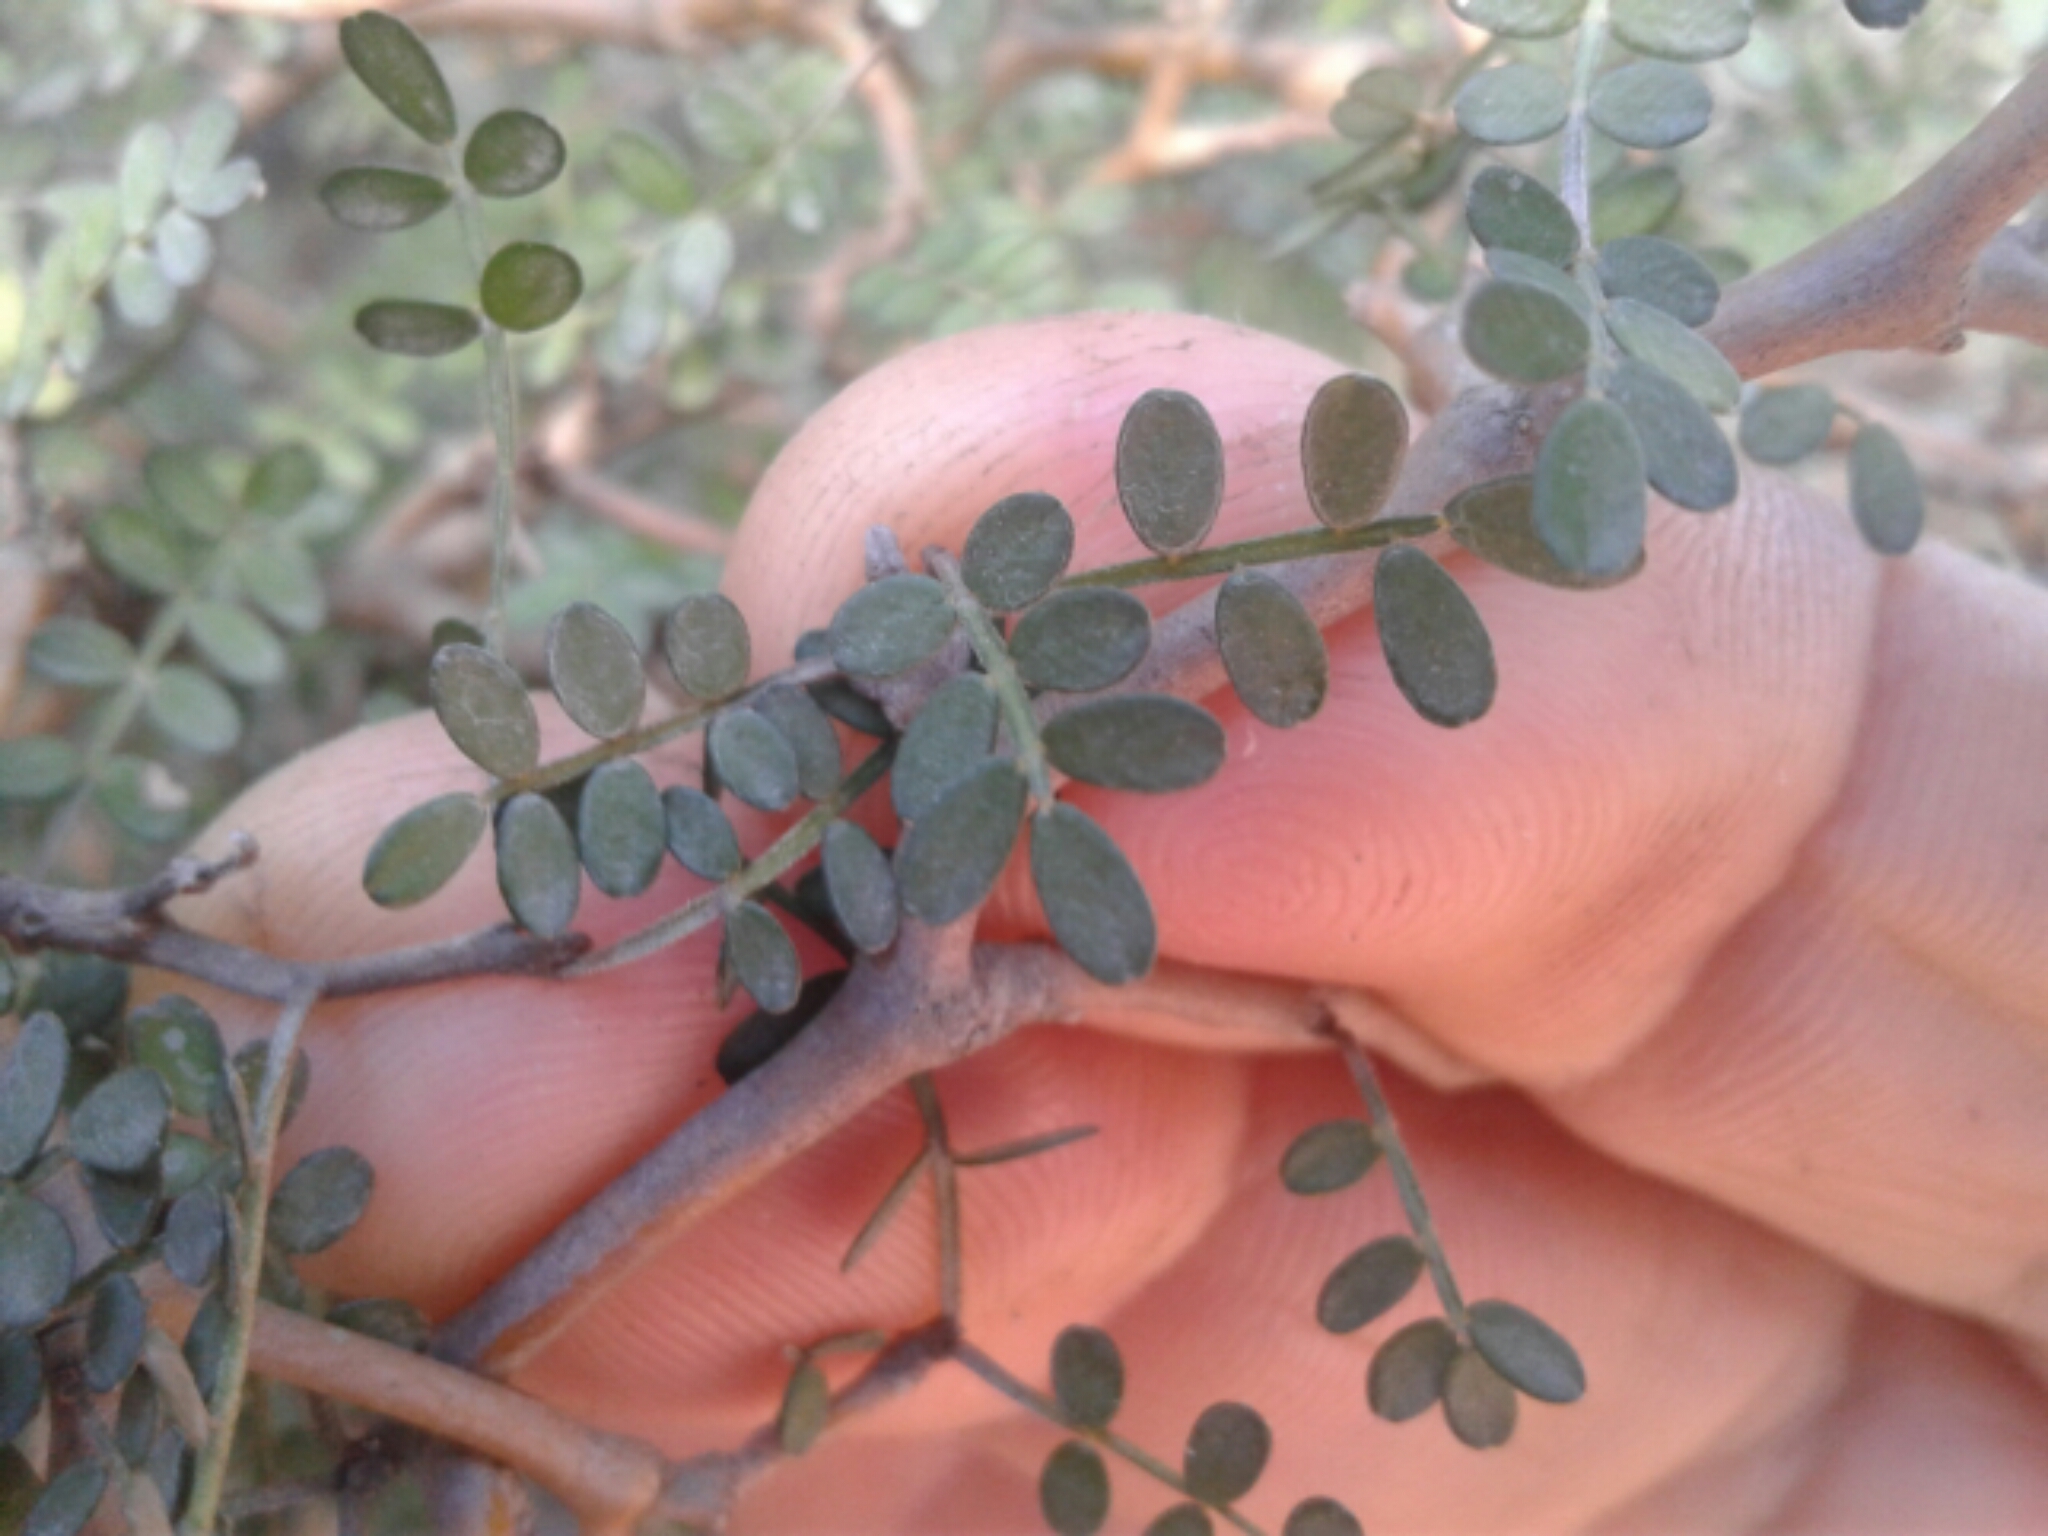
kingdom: Plantae
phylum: Tracheophyta
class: Magnoliopsida
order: Fabales
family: Fabaceae
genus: Sophora
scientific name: Sophora prostrata
